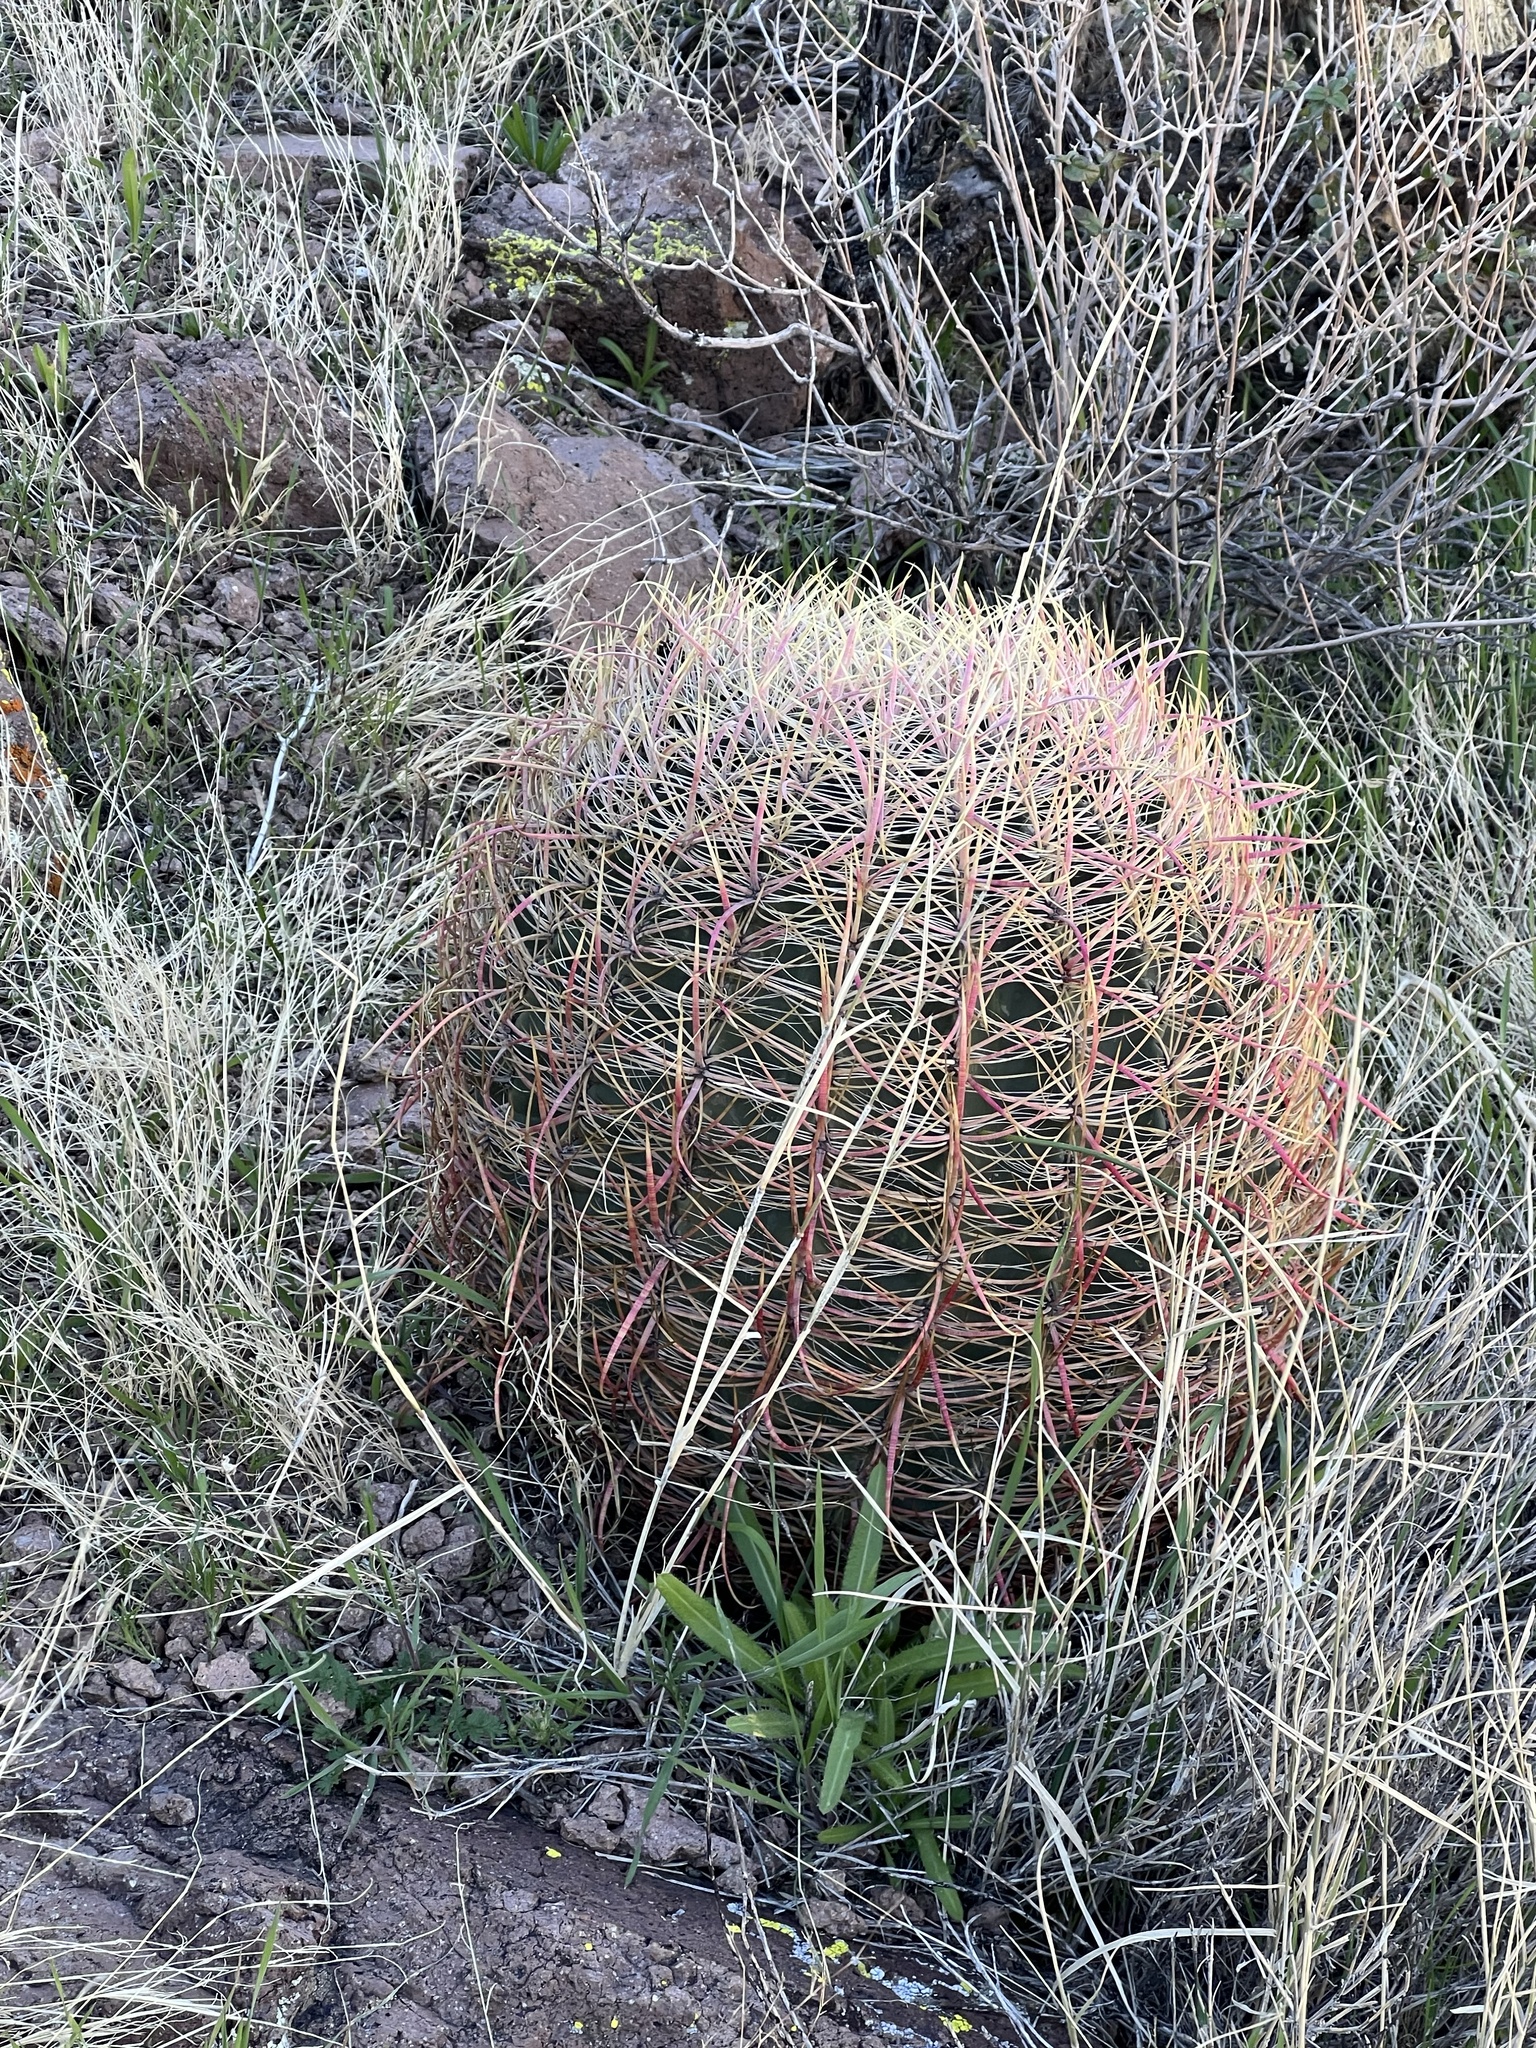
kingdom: Plantae
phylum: Tracheophyta
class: Magnoliopsida
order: Caryophyllales
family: Cactaceae
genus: Ferocactus
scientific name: Ferocactus cylindraceus
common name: California barrel cactus
